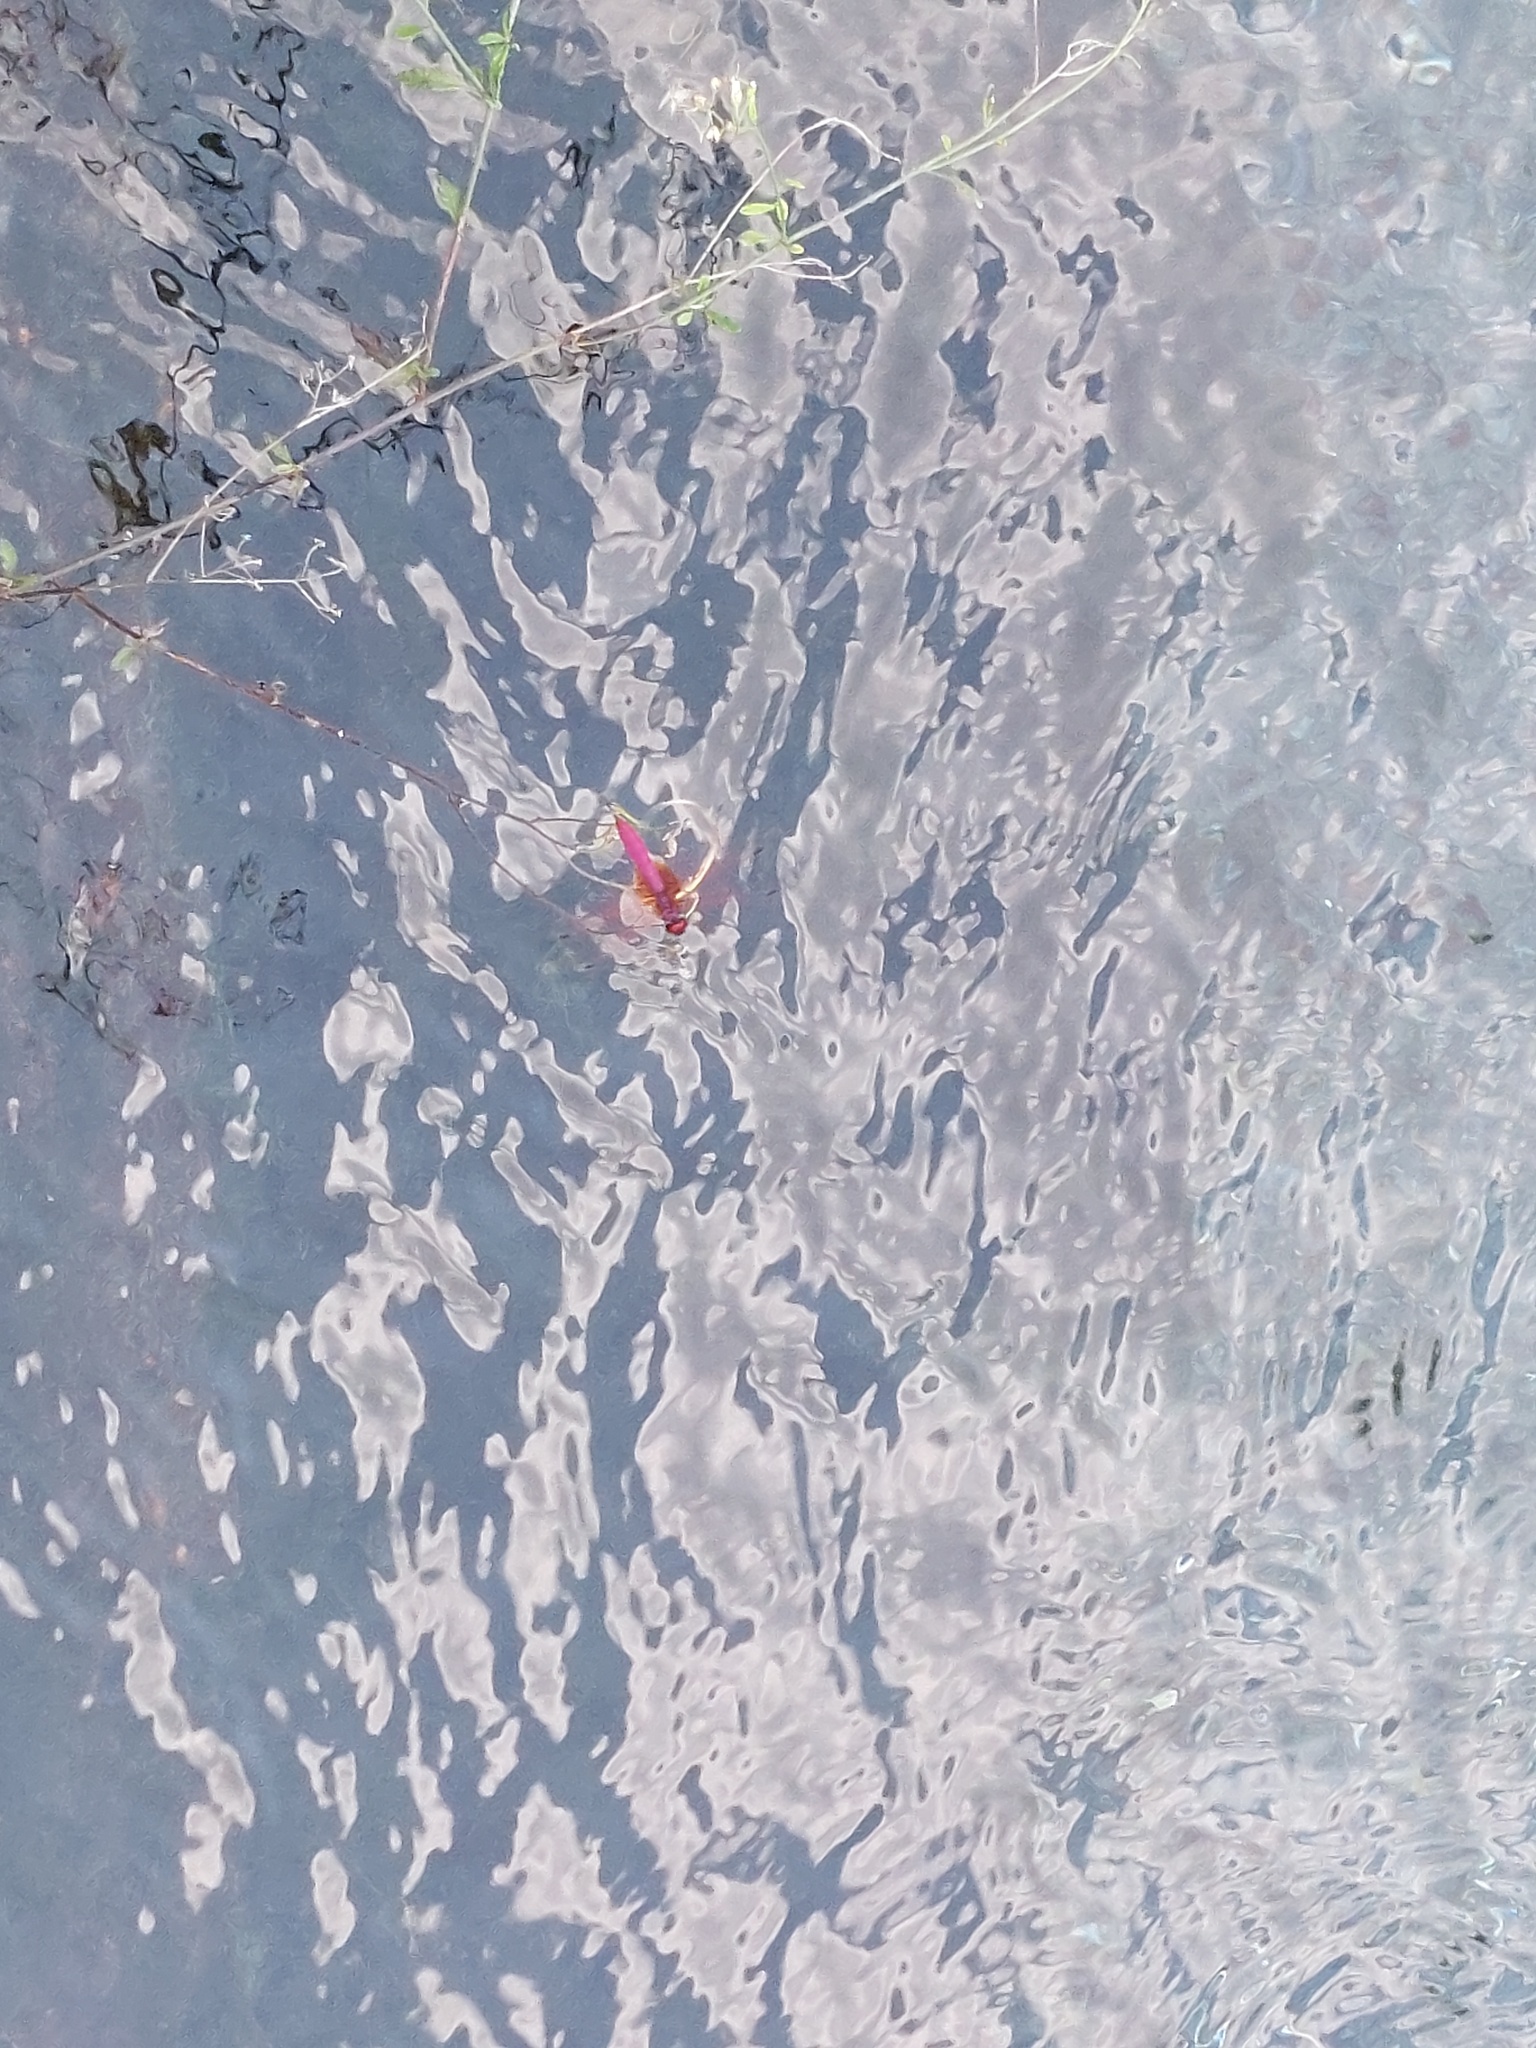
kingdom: Animalia
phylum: Arthropoda
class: Insecta
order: Odonata
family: Libellulidae
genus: Trithemis
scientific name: Trithemis aurora
